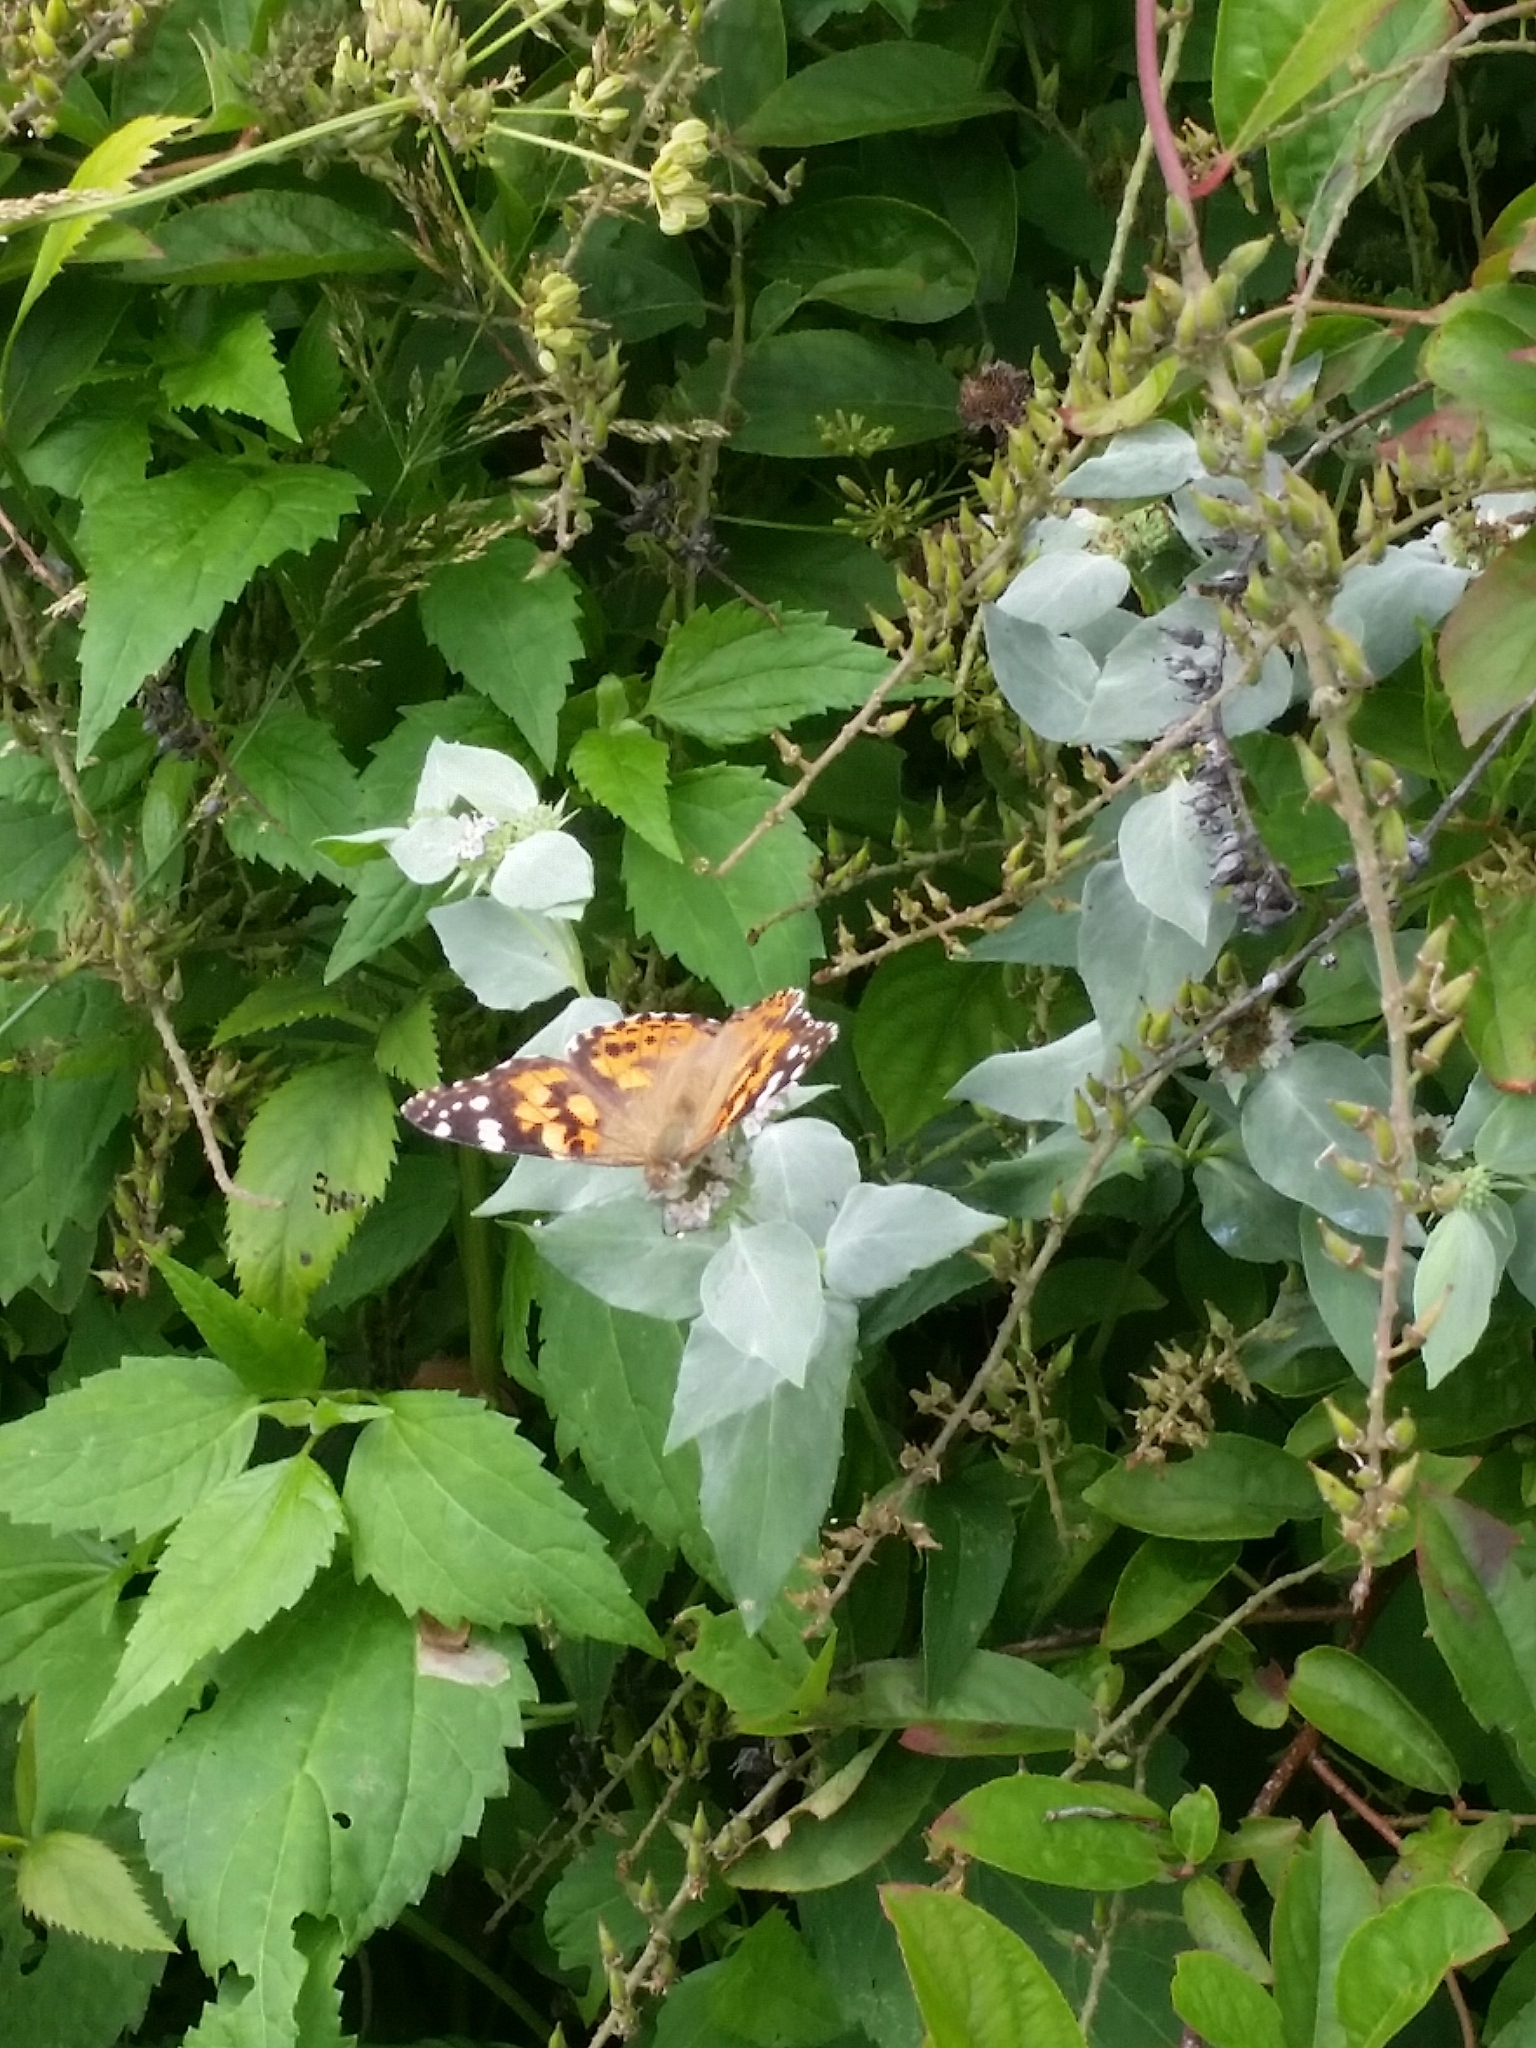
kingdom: Animalia
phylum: Arthropoda
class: Insecta
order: Lepidoptera
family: Nymphalidae
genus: Vanessa
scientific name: Vanessa cardui
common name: Painted lady
